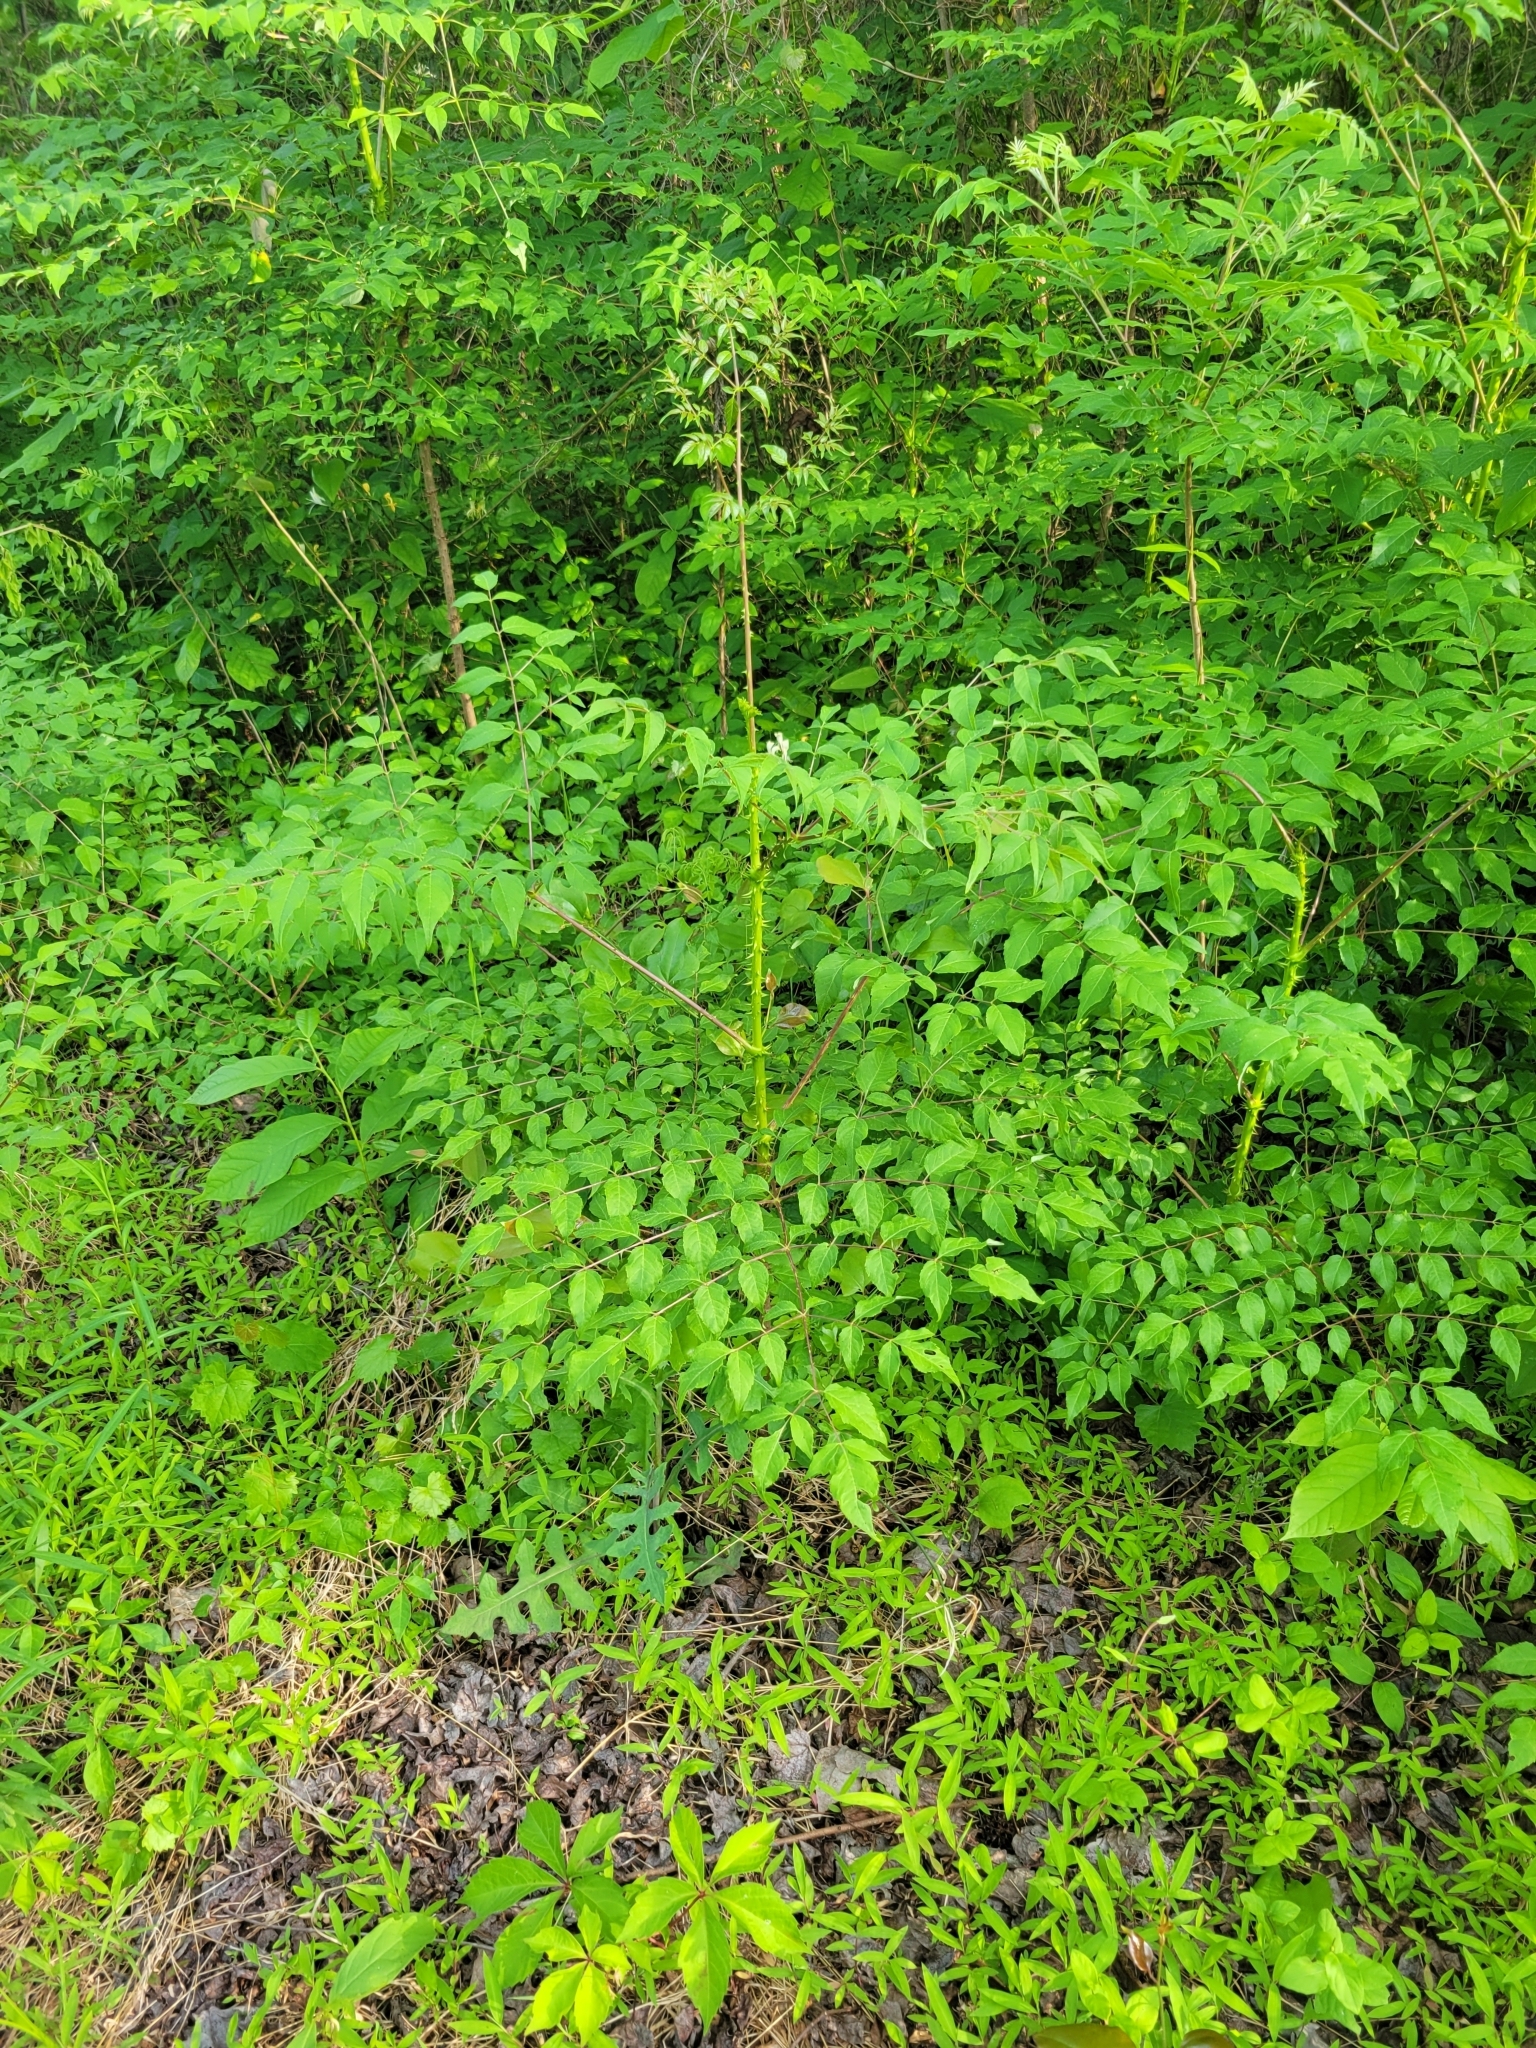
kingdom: Plantae
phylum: Tracheophyta
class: Magnoliopsida
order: Apiales
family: Araliaceae
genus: Aralia
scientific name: Aralia spinosa
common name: Hercules'-club
